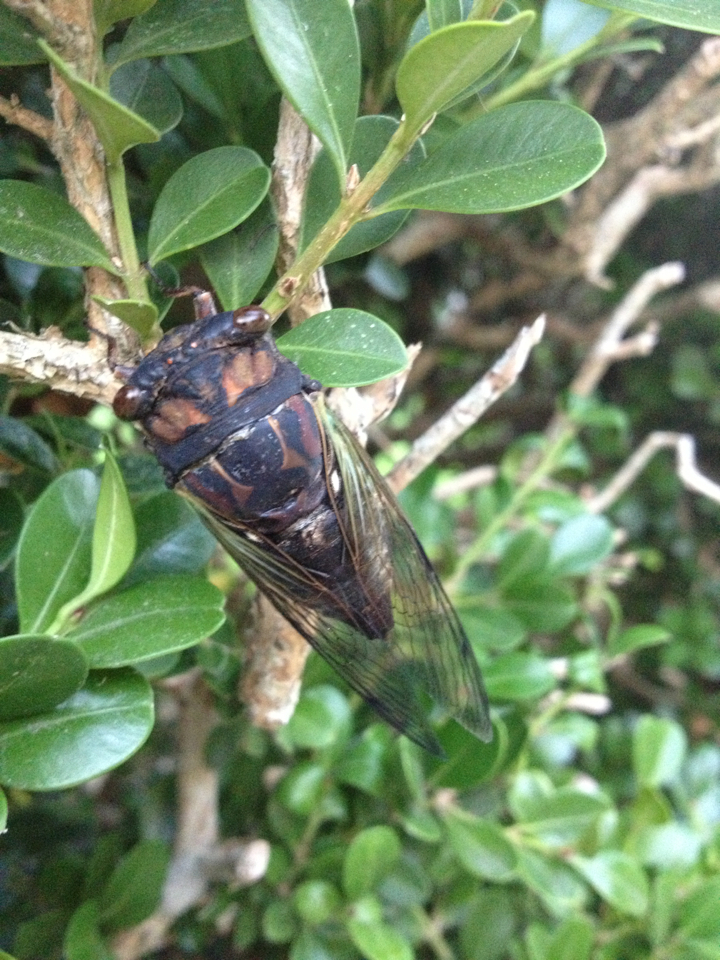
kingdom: Animalia
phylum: Arthropoda
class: Insecta
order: Hemiptera
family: Cicadidae
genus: Neotibicen
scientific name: Neotibicen lyricen
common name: Lyric cicada
